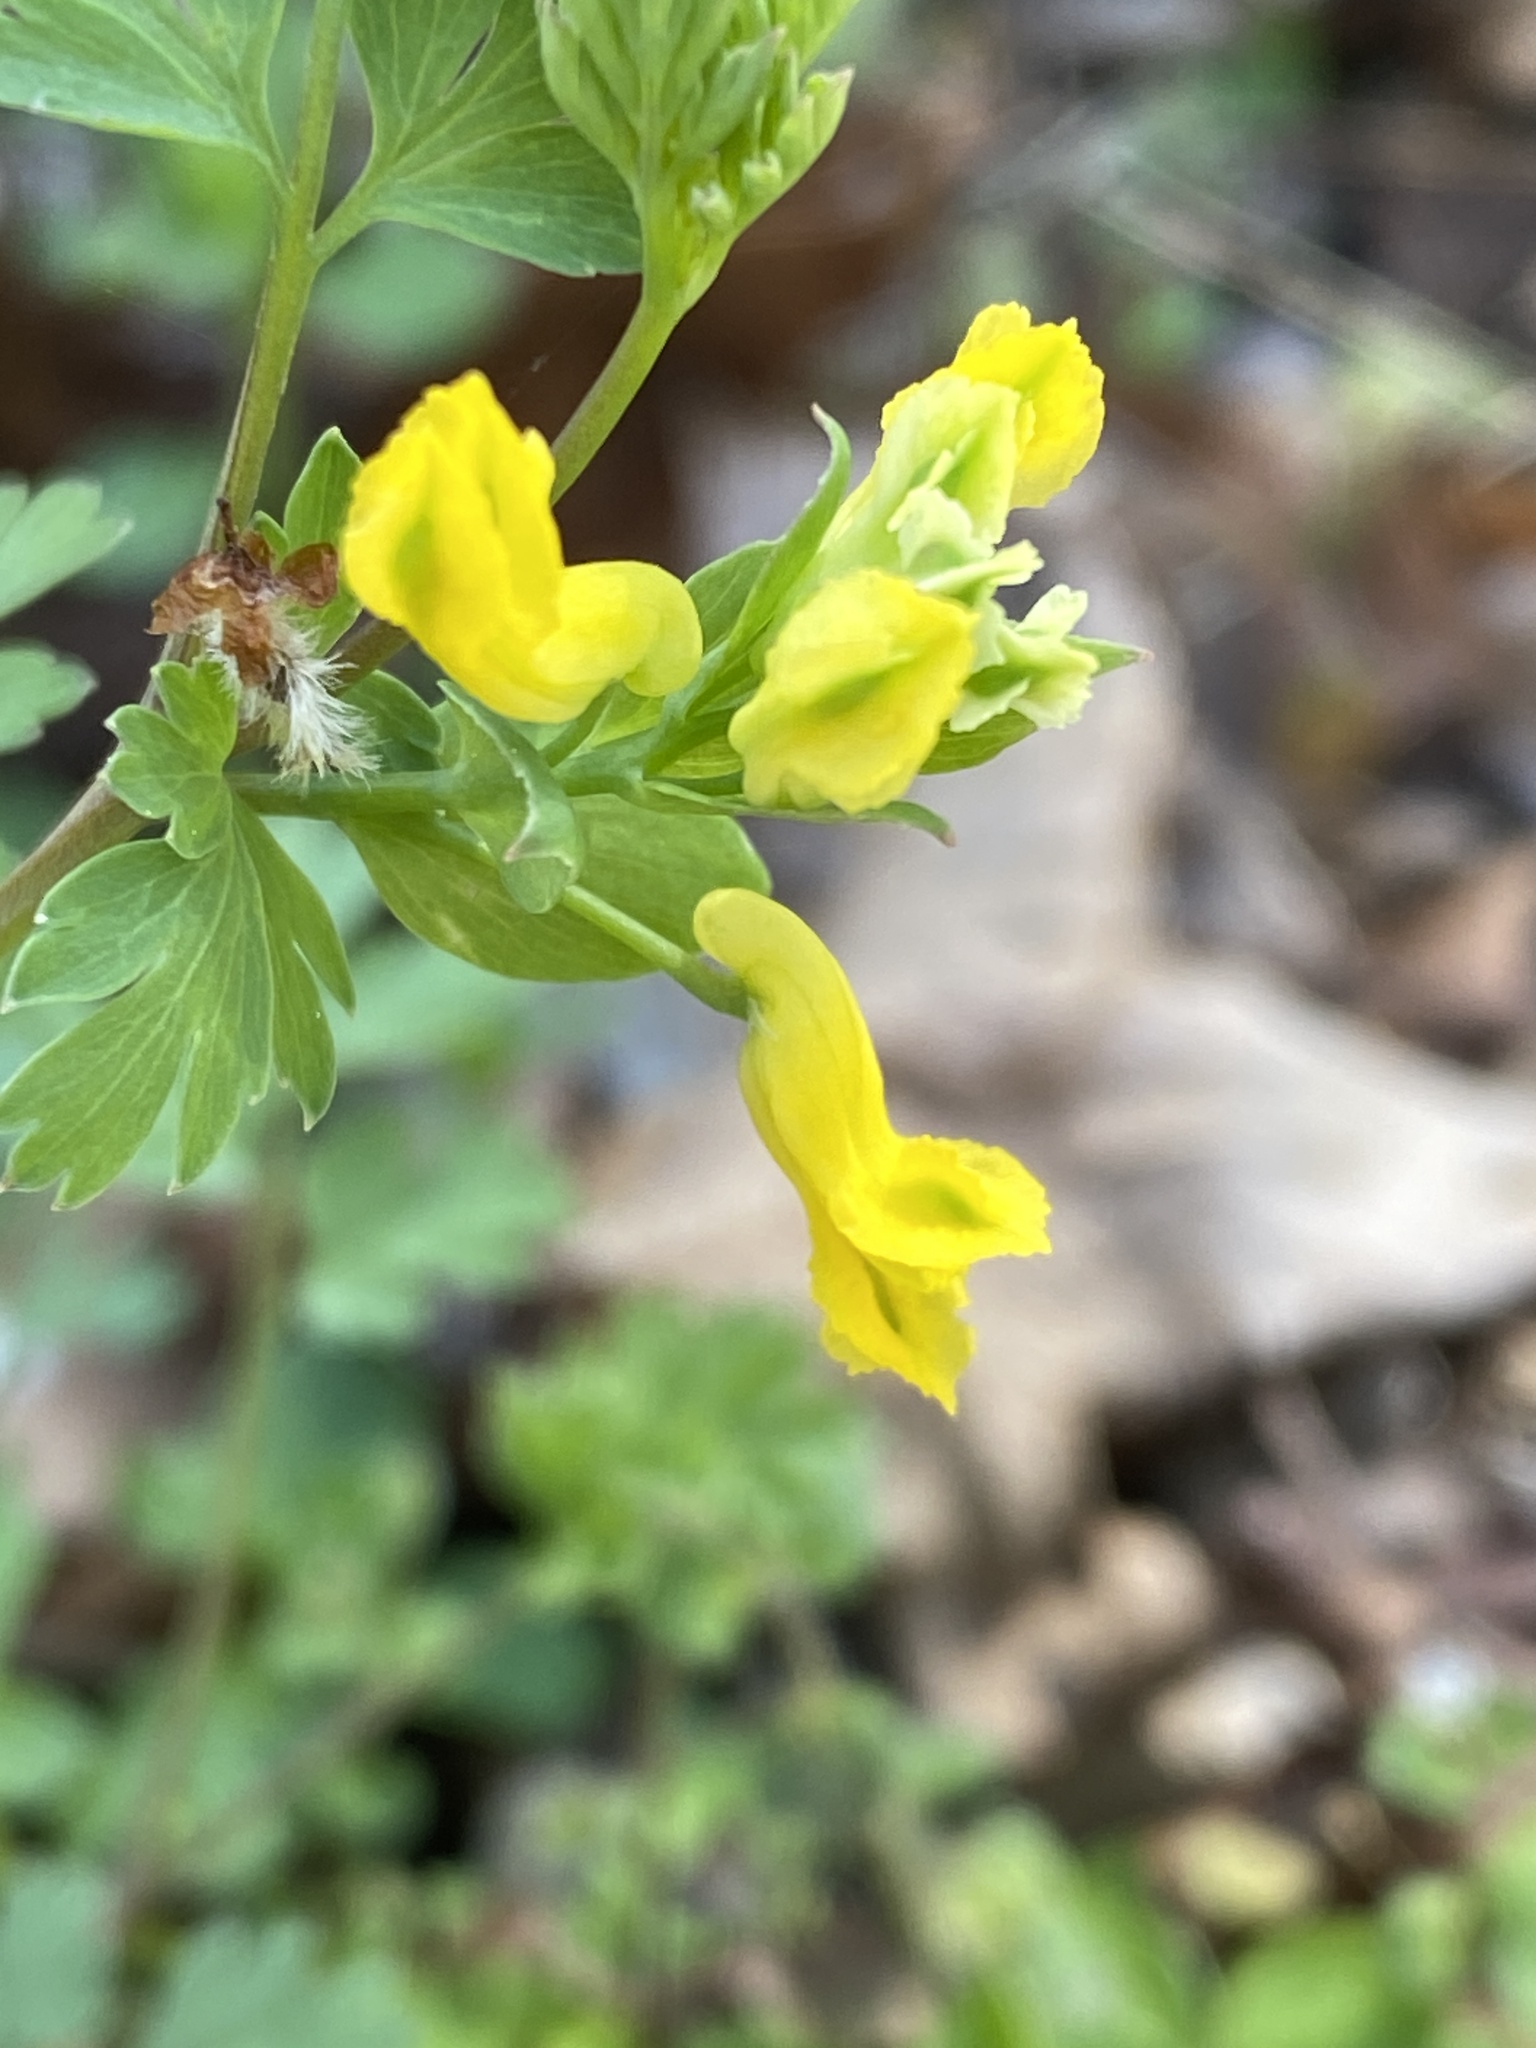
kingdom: Plantae
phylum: Tracheophyta
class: Magnoliopsida
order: Ranunculales
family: Papaveraceae
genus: Corydalis
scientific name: Corydalis flavula
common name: Yellow corydalis
